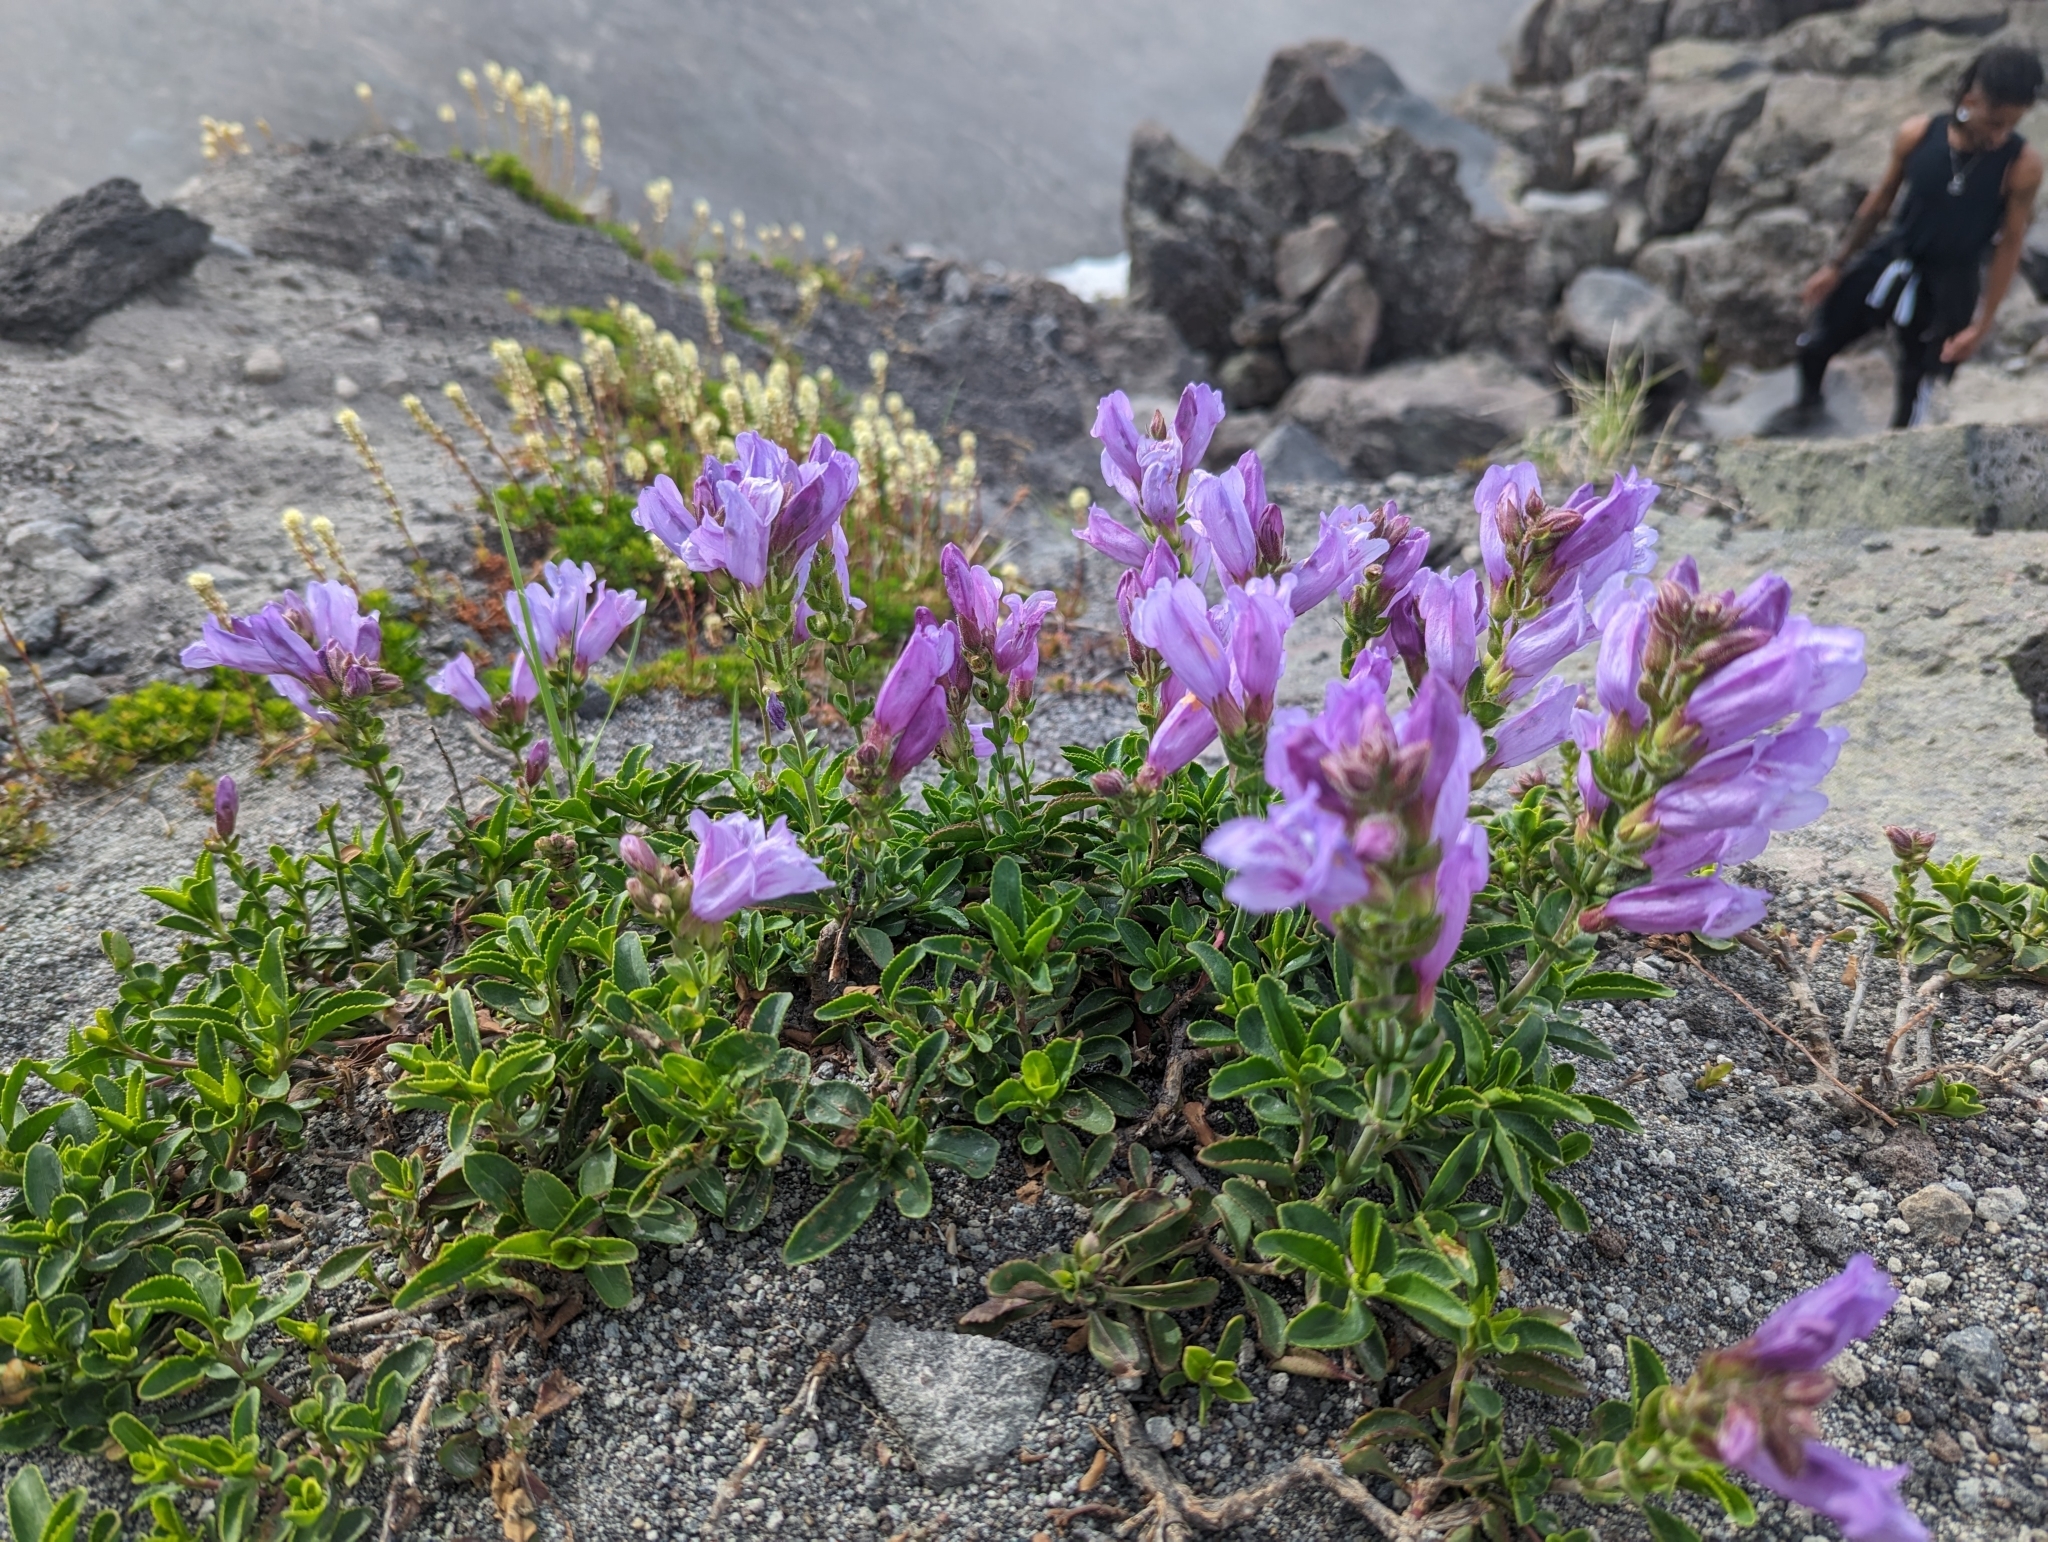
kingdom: Plantae
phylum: Tracheophyta
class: Magnoliopsida
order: Lamiales
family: Plantaginaceae
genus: Penstemon
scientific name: Penstemon davidsonii
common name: Davidson's penstemon
